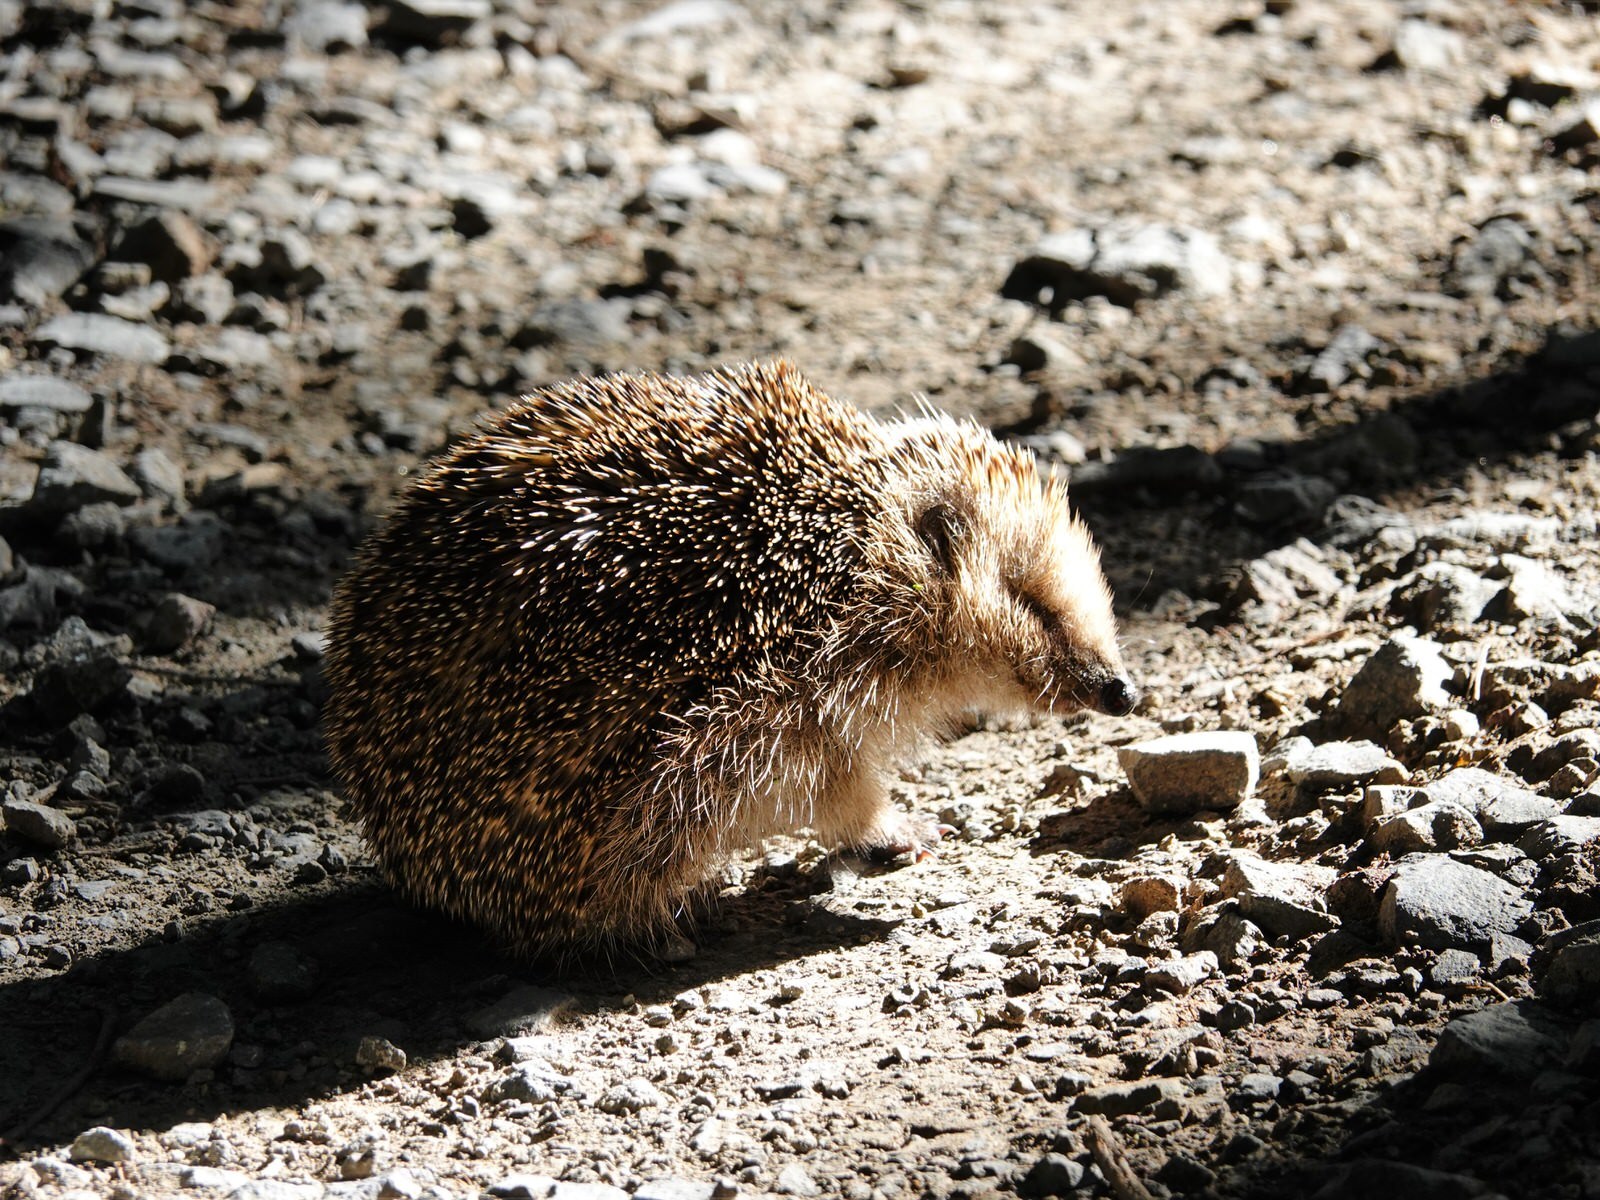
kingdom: Animalia
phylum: Chordata
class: Mammalia
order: Erinaceomorpha
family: Erinaceidae
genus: Erinaceus
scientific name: Erinaceus europaeus
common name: West european hedgehog
